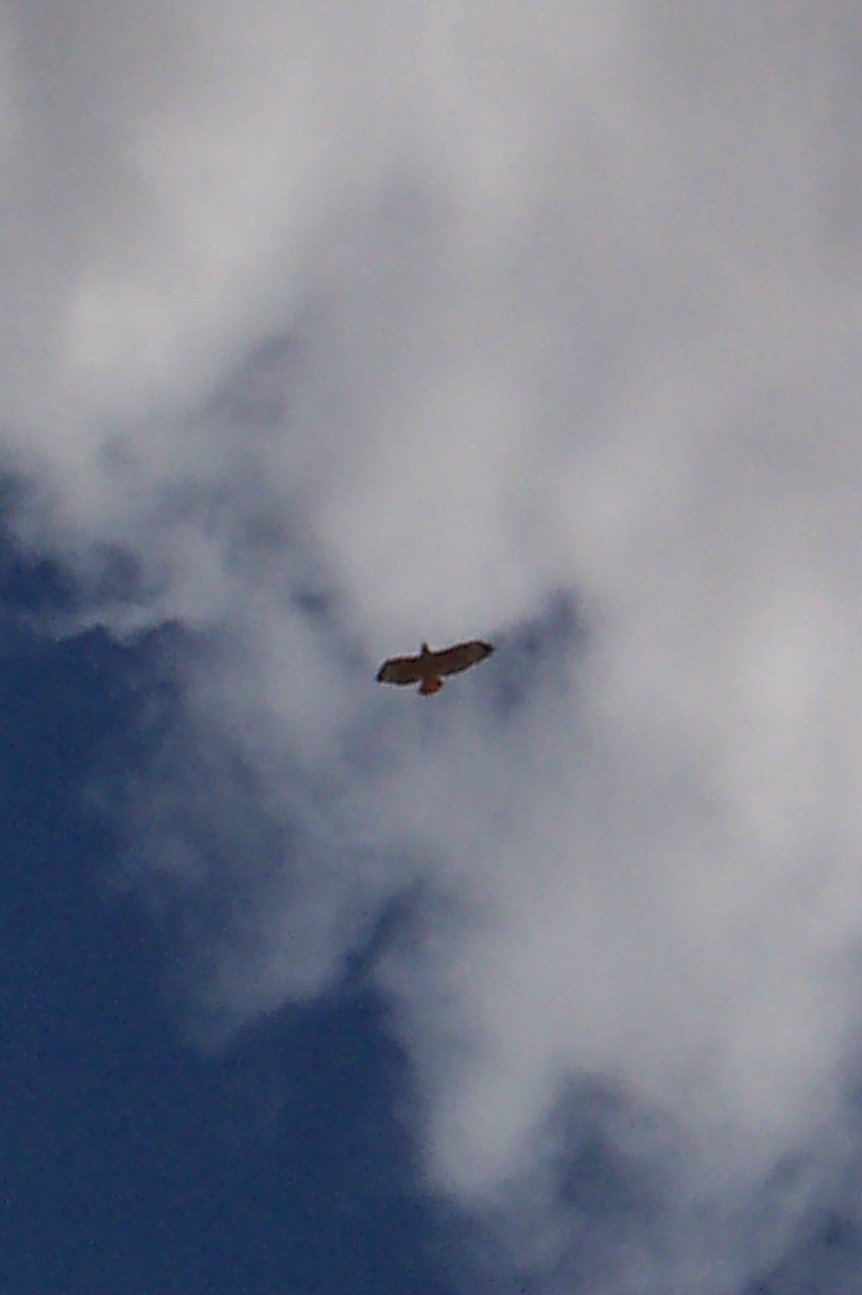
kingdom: Animalia
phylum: Chordata
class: Aves
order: Accipitriformes
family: Accipitridae
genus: Buteo
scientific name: Buteo jamaicensis
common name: Red-tailed hawk
